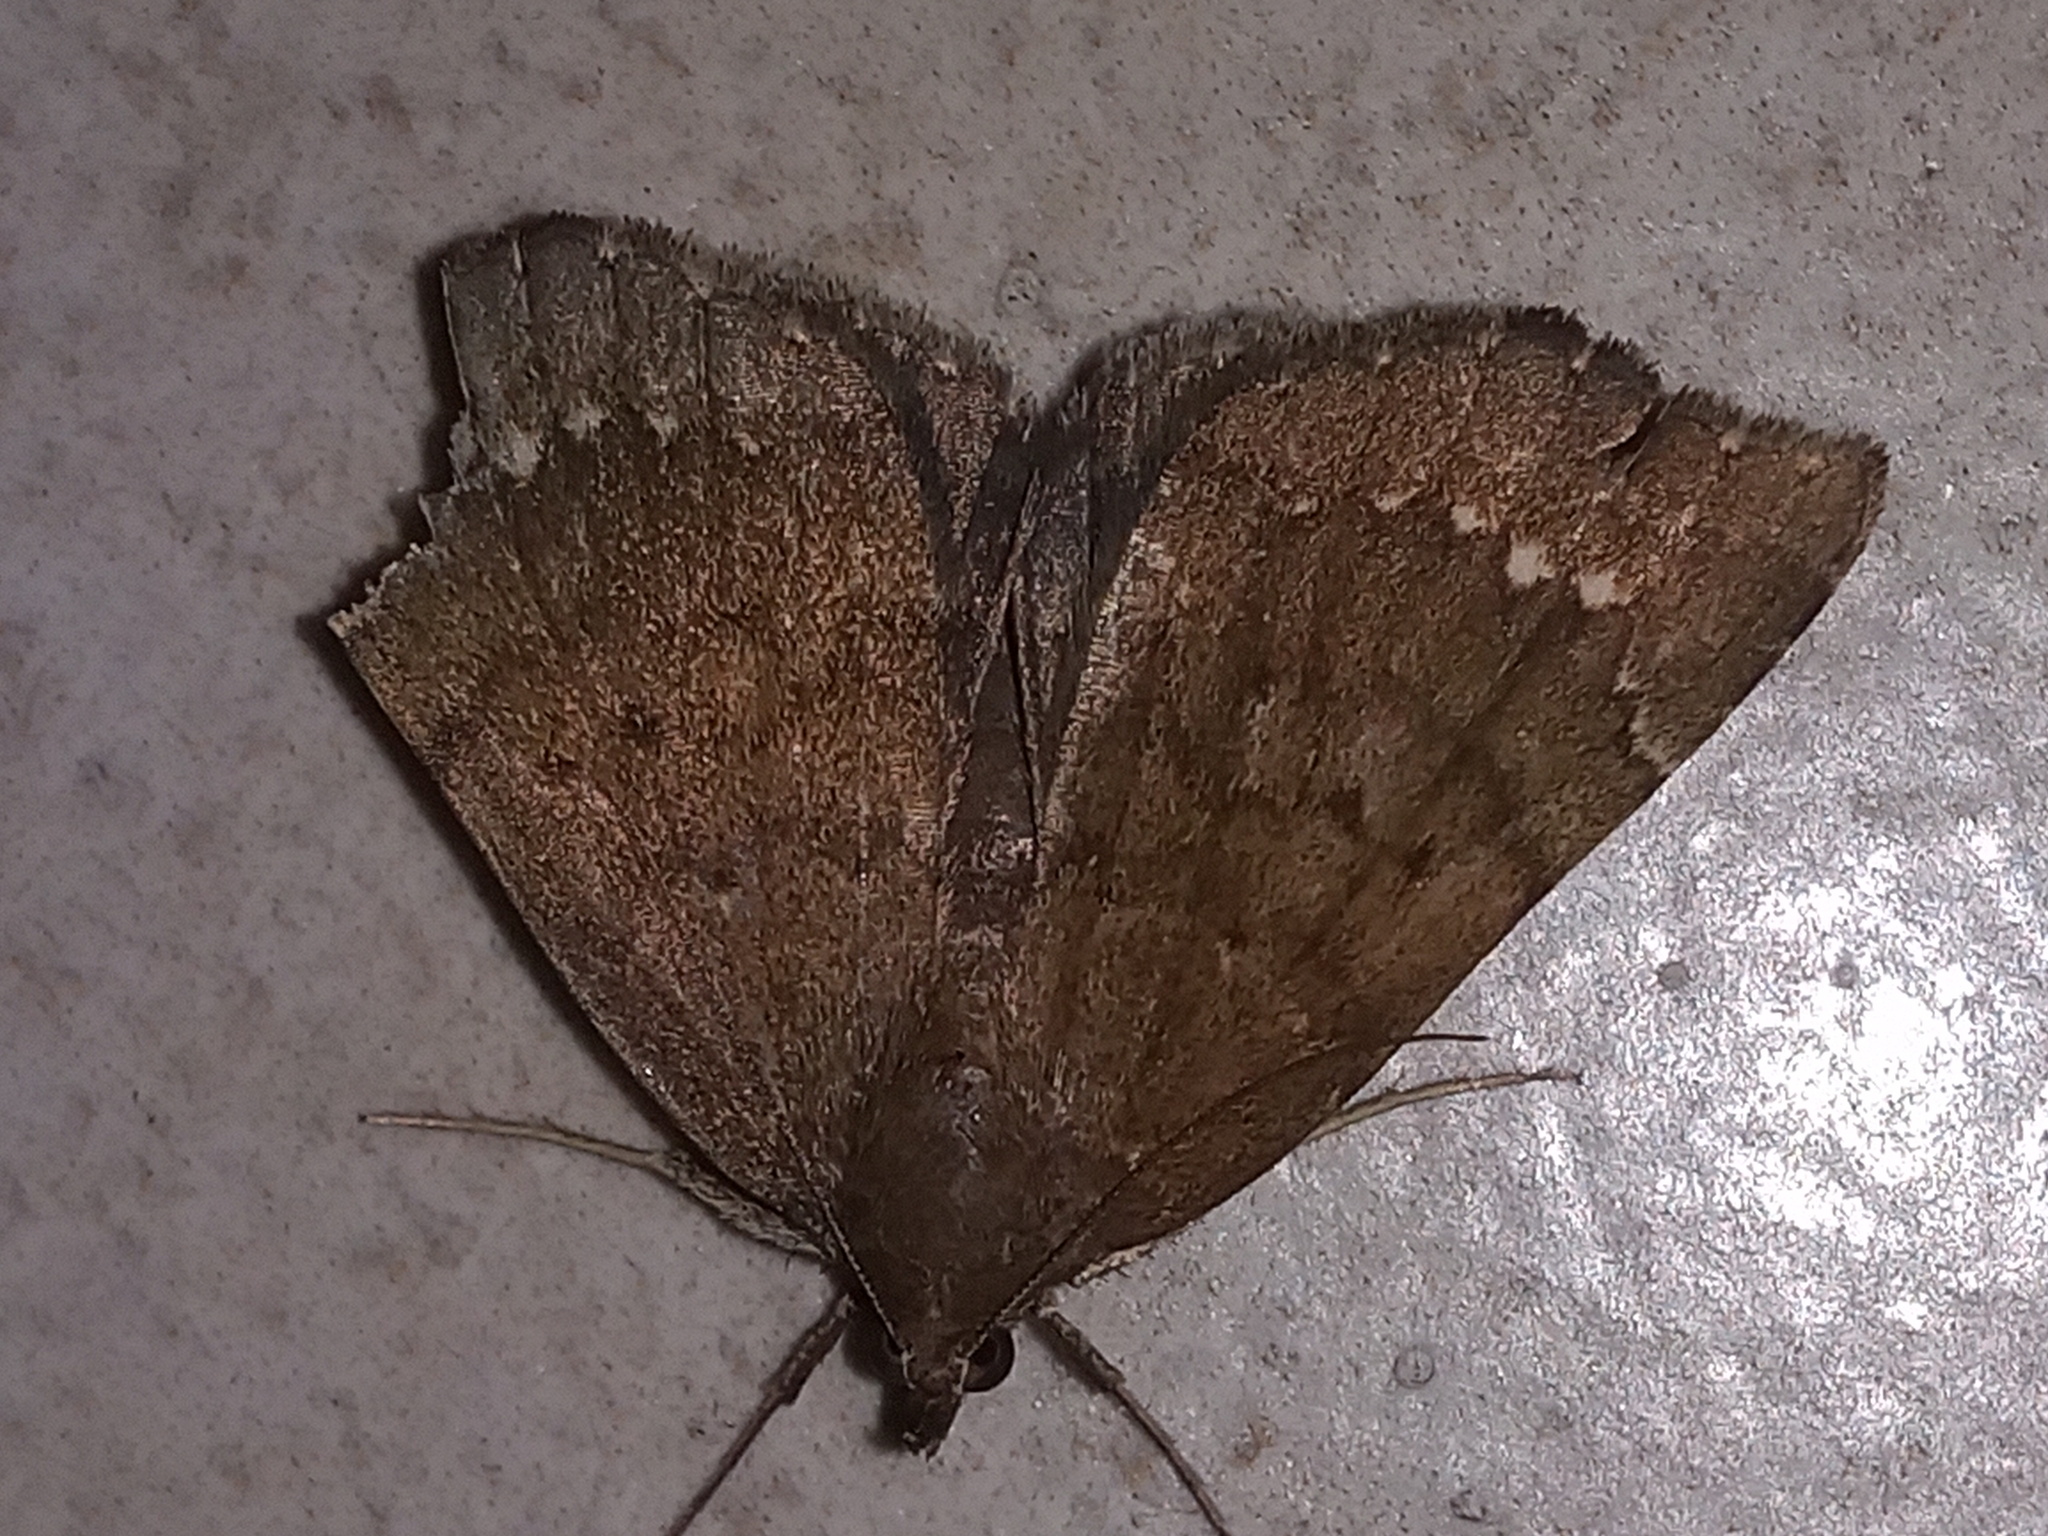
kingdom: Animalia
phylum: Arthropoda
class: Insecta
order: Lepidoptera
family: Erebidae
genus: Focillidia
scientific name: Focillidia texana
